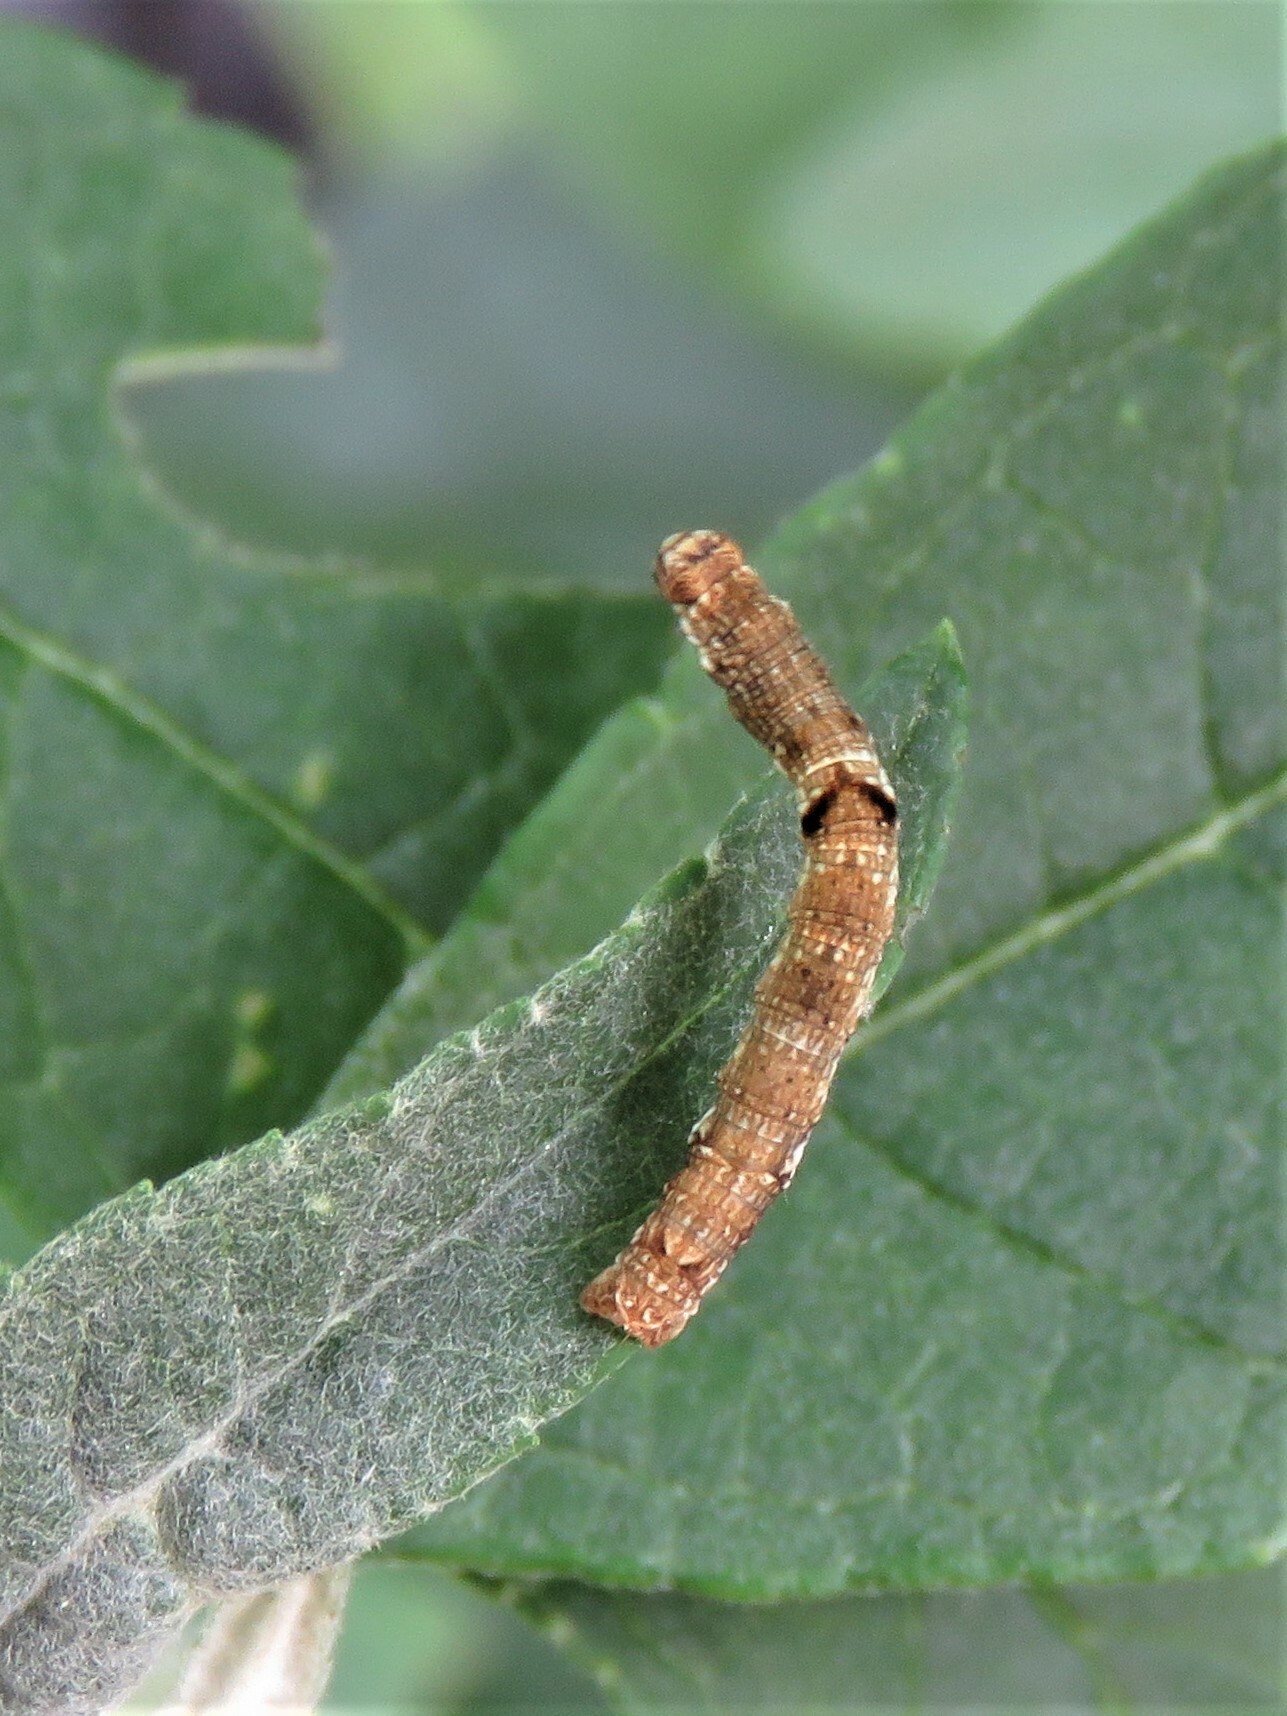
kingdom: Animalia
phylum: Arthropoda
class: Insecta
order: Lepidoptera
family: Geometridae
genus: Ectropis
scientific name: Ectropis crepuscularia
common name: Engrailed
